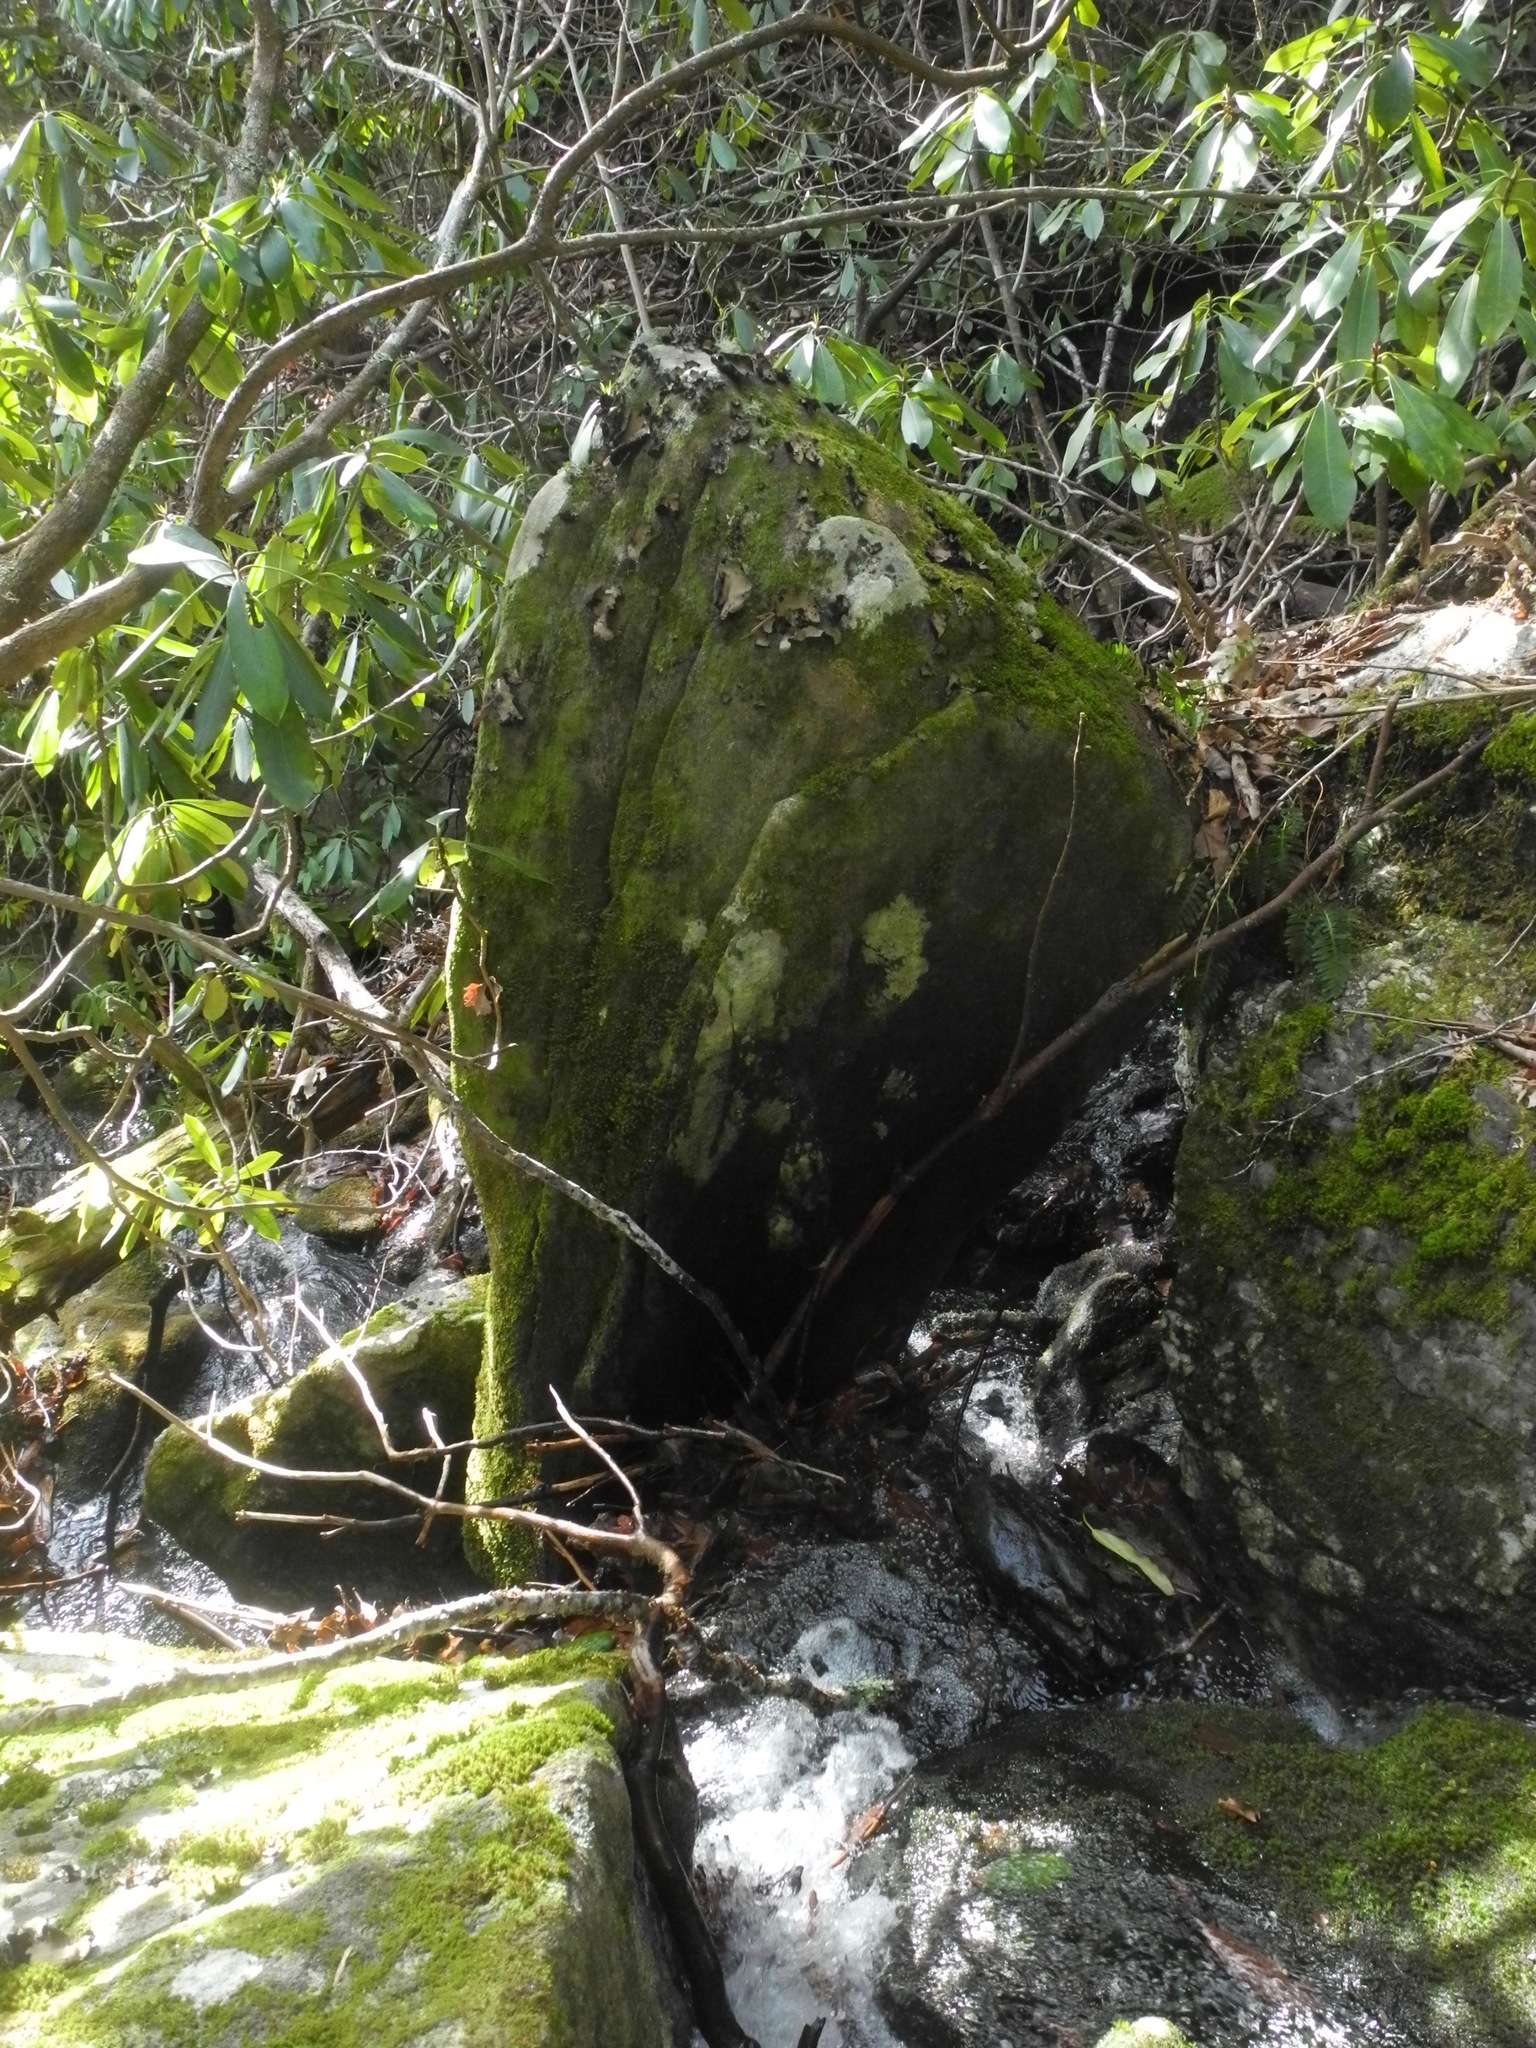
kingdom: Fungi
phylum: Ascomycota
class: Lecanoromycetes
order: Umbilicariales
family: Umbilicariaceae
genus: Umbilicaria
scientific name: Umbilicaria mammulata
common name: Smooth rock tripe
